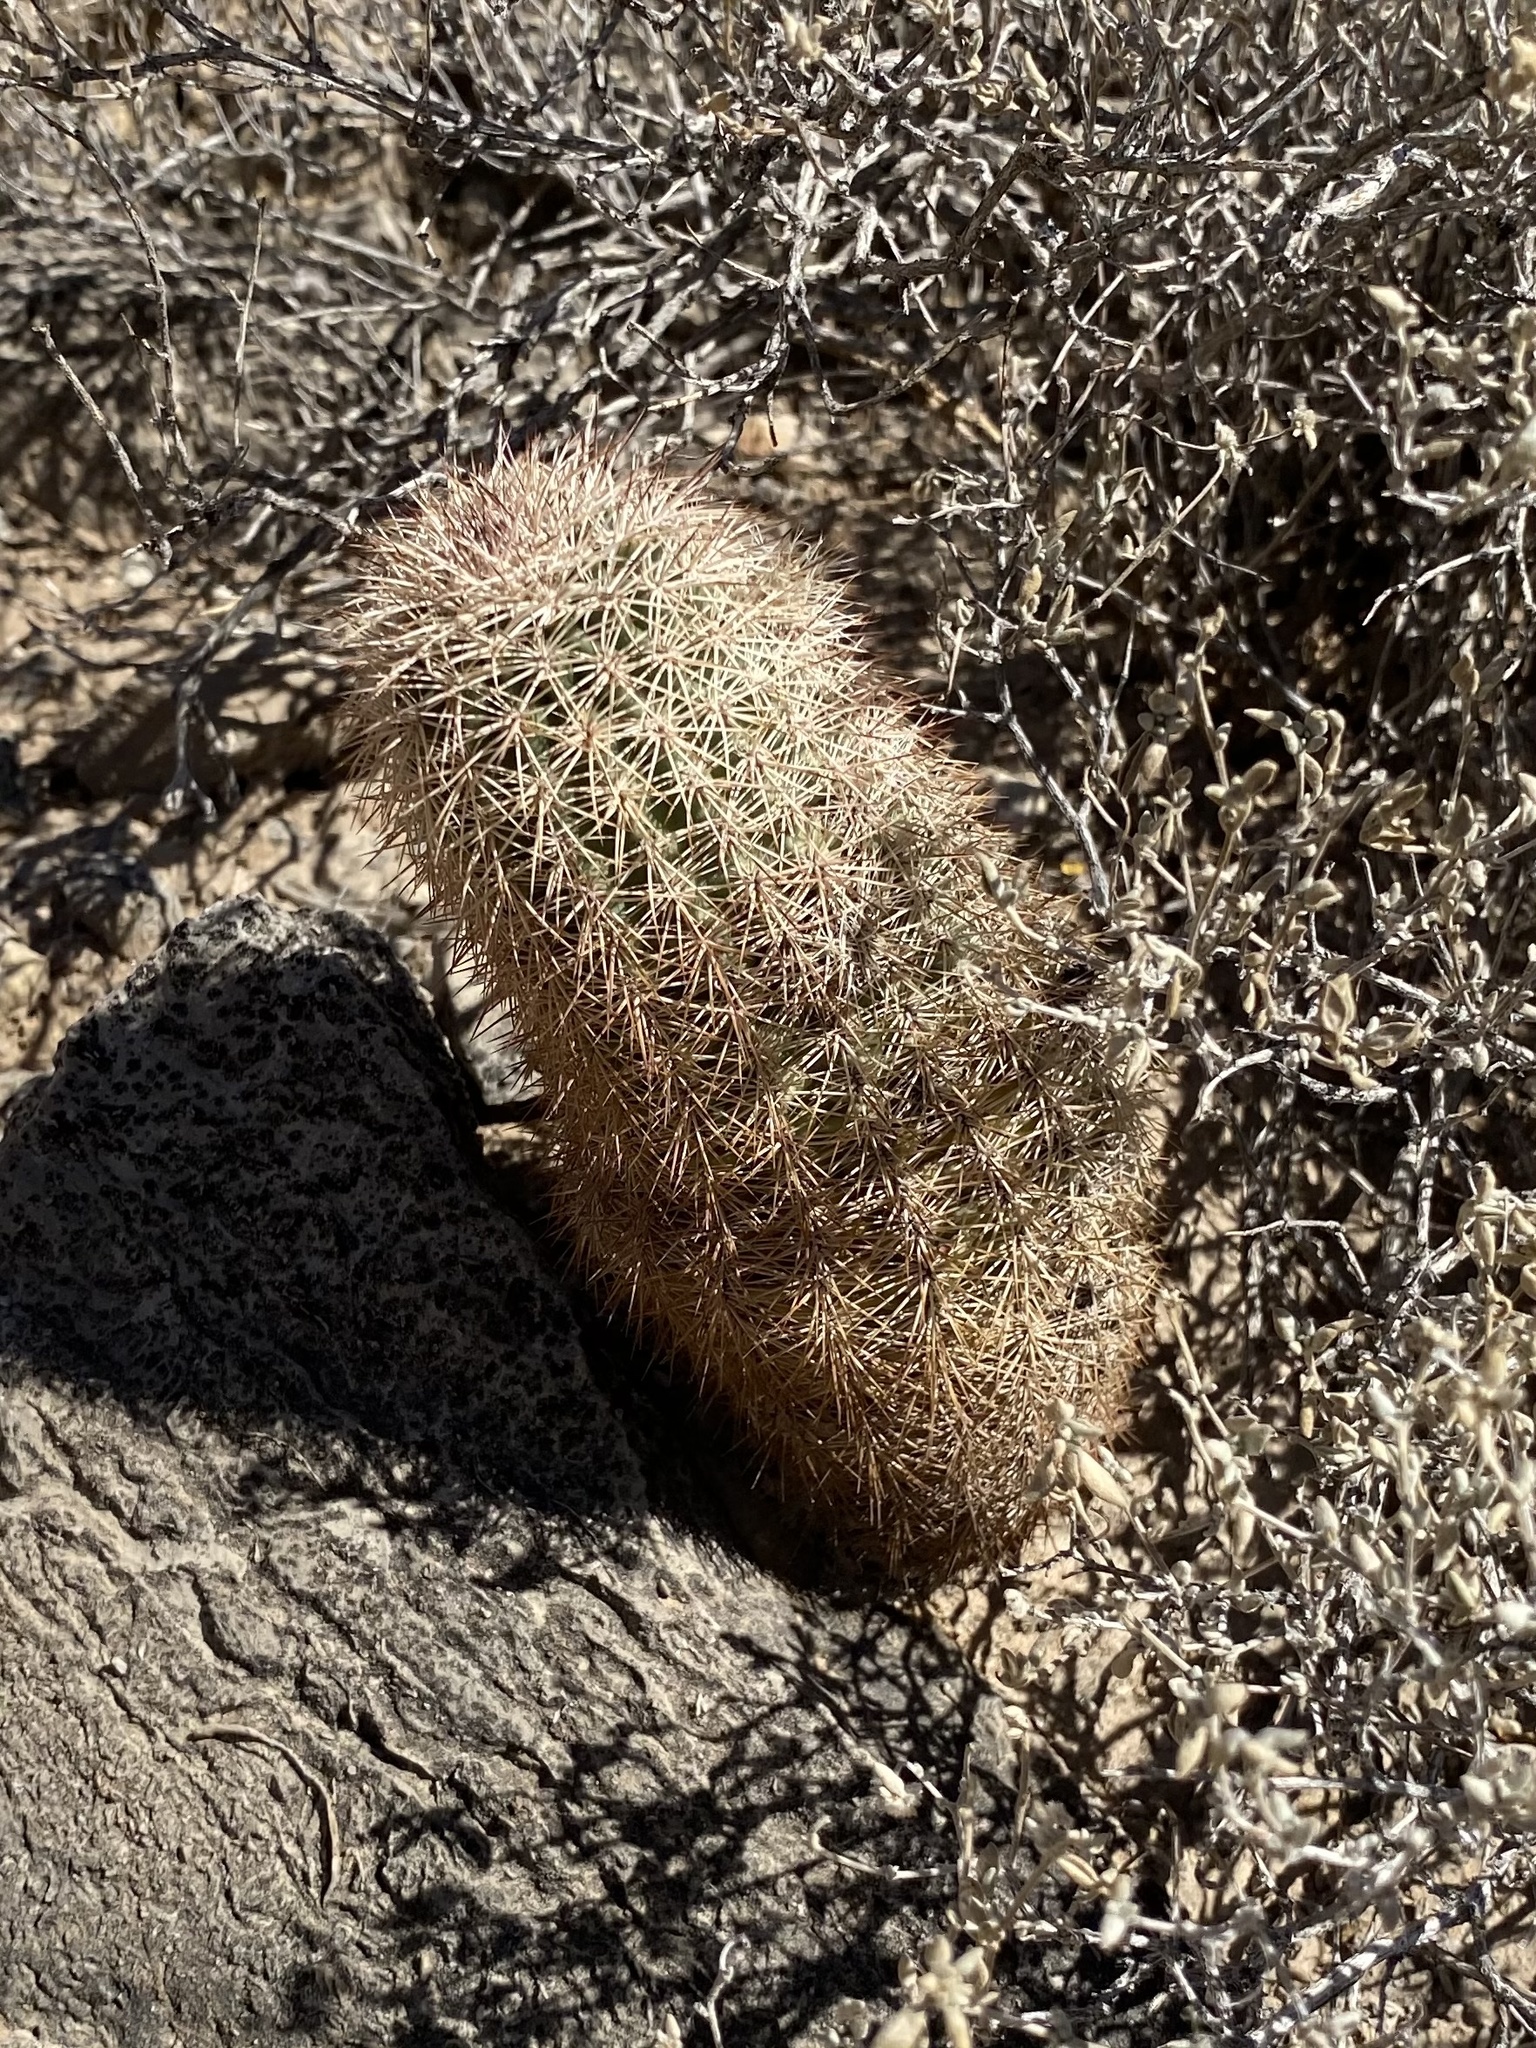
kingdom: Plantae
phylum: Tracheophyta
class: Magnoliopsida
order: Caryophyllales
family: Cactaceae
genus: Echinocereus
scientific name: Echinocereus dasyacanthus
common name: Spiny hedgehog cactus
